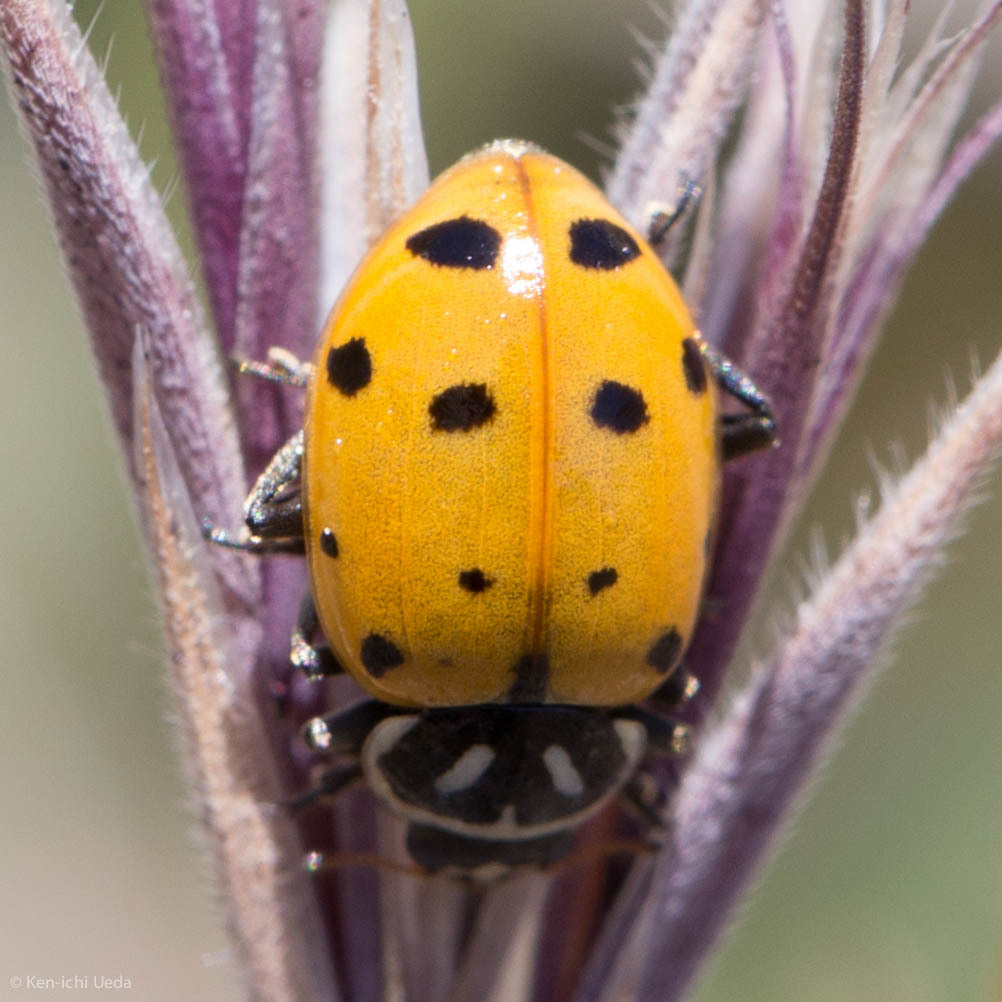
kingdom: Animalia
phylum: Arthropoda
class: Insecta
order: Coleoptera
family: Coccinellidae
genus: Hippodamia
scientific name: Hippodamia convergens
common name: Convergent lady beetle
